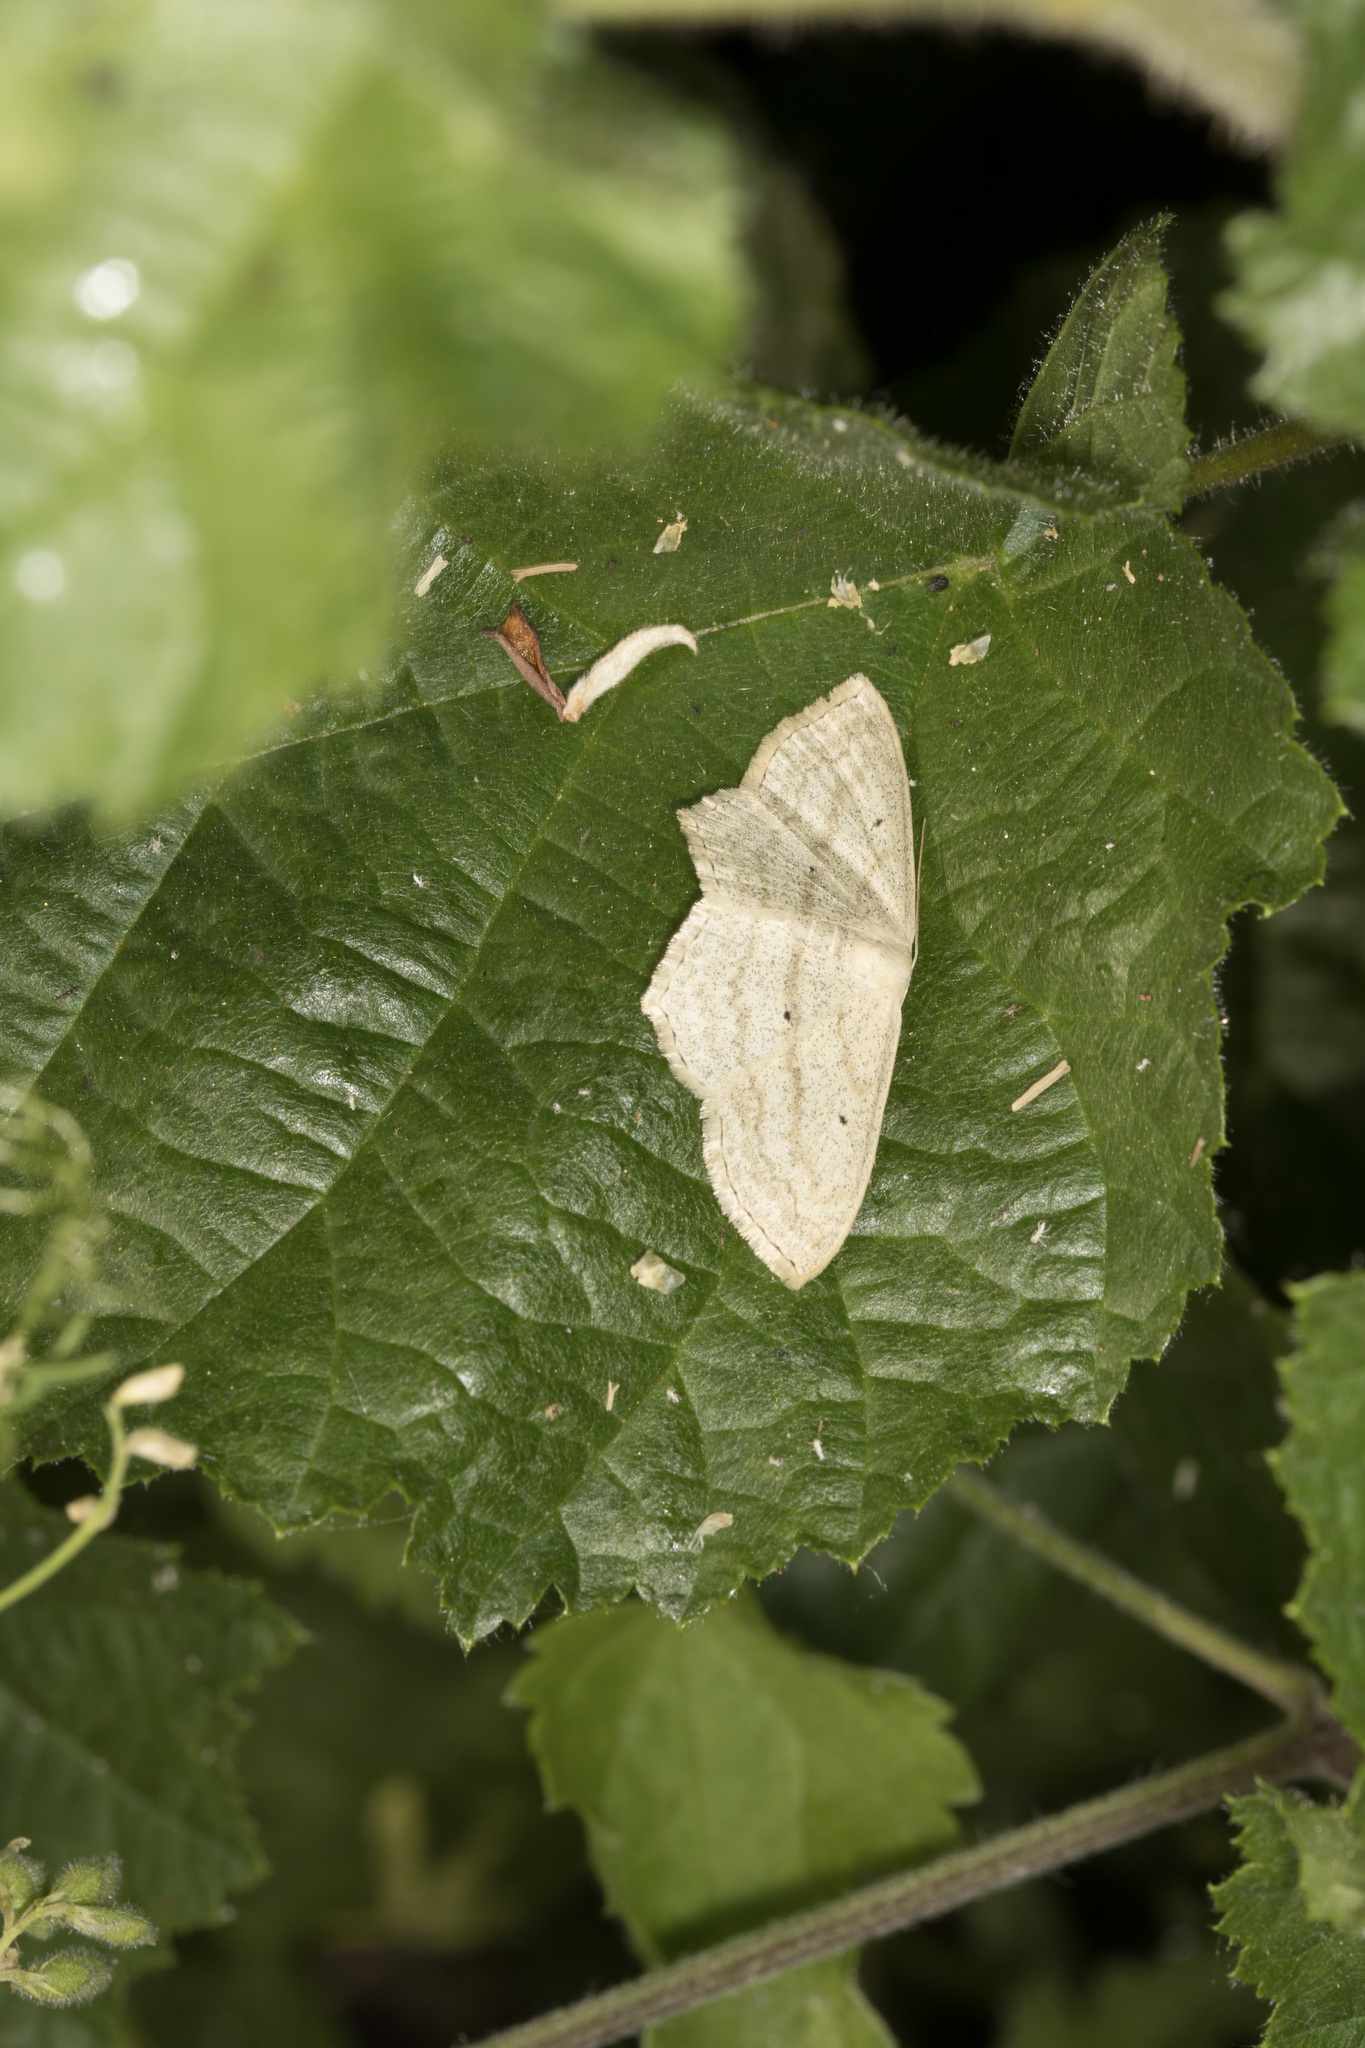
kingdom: Animalia
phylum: Arthropoda
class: Insecta
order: Lepidoptera
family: Geometridae
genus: Scopula
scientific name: Scopula nigropunctata
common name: Sub-angled wave
